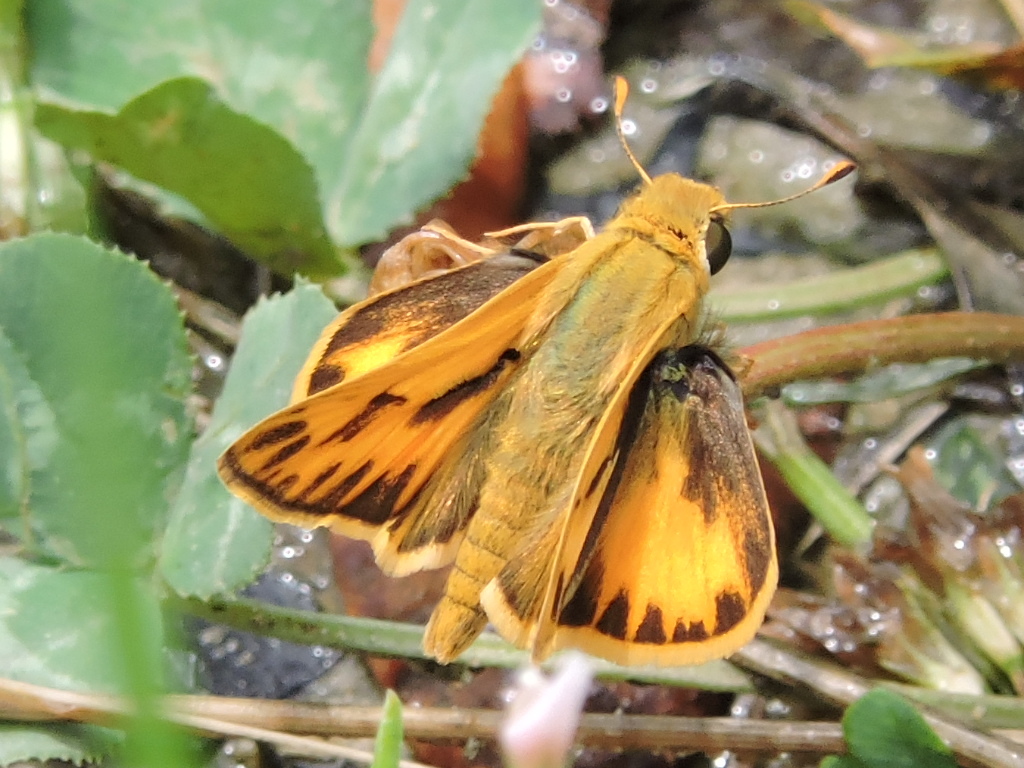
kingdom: Animalia
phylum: Arthropoda
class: Insecta
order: Lepidoptera
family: Hesperiidae
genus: Hylephila
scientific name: Hylephila phyleus
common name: Fiery skipper
